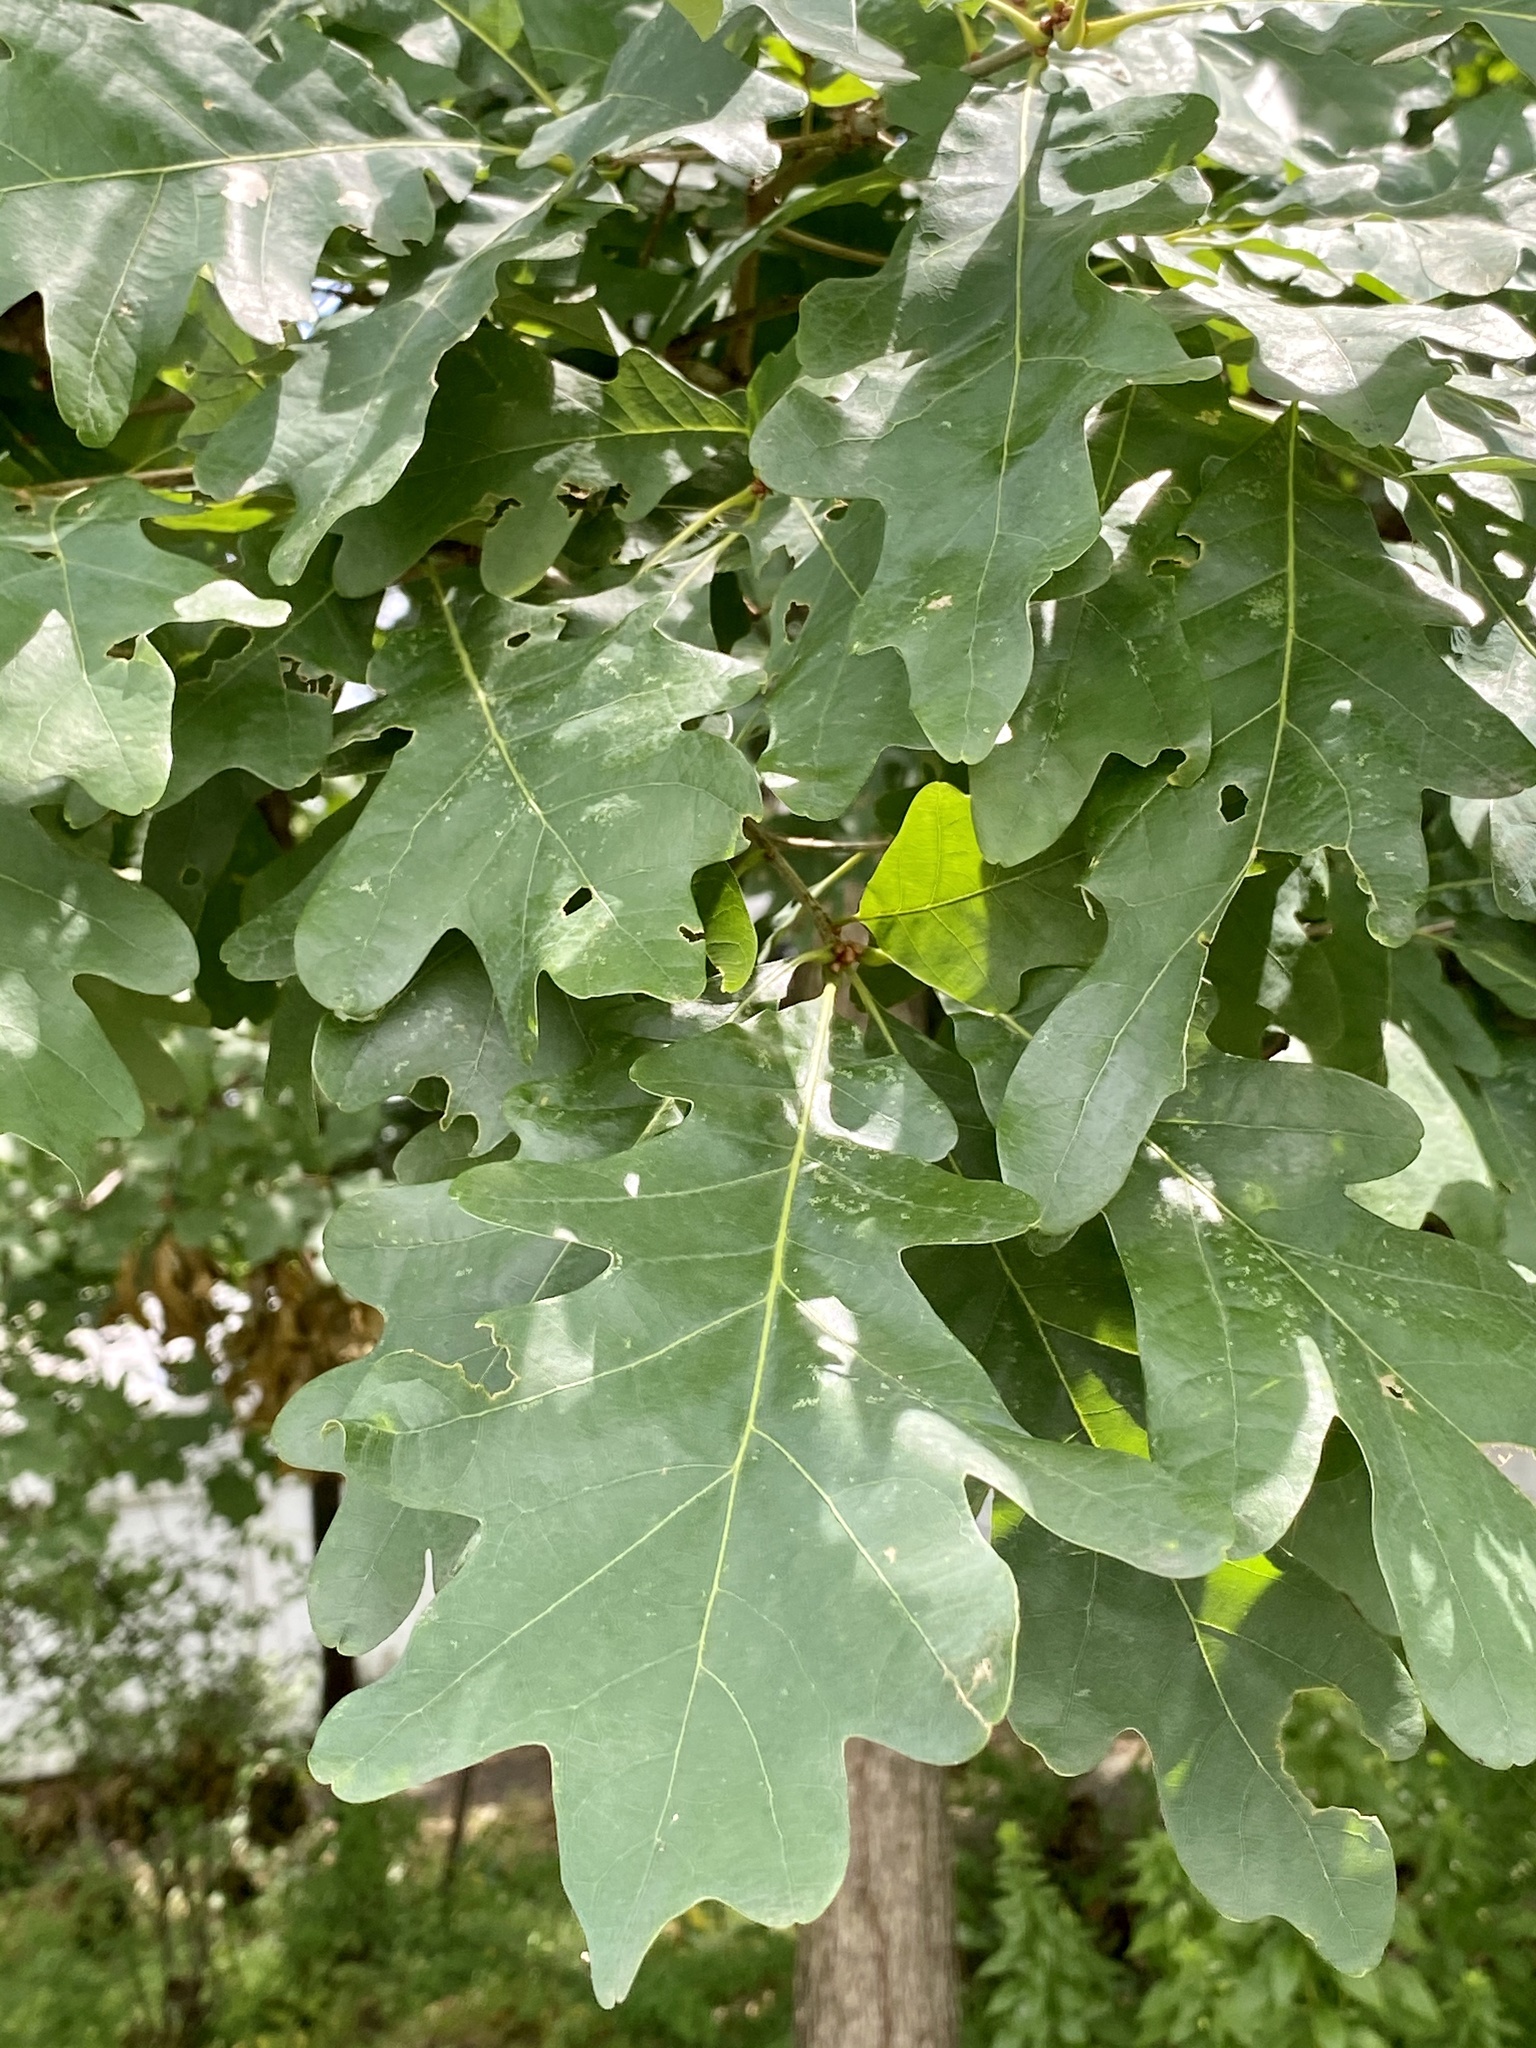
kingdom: Plantae
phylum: Tracheophyta
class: Magnoliopsida
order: Fagales
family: Fagaceae
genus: Quercus
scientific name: Quercus alba
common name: White oak
